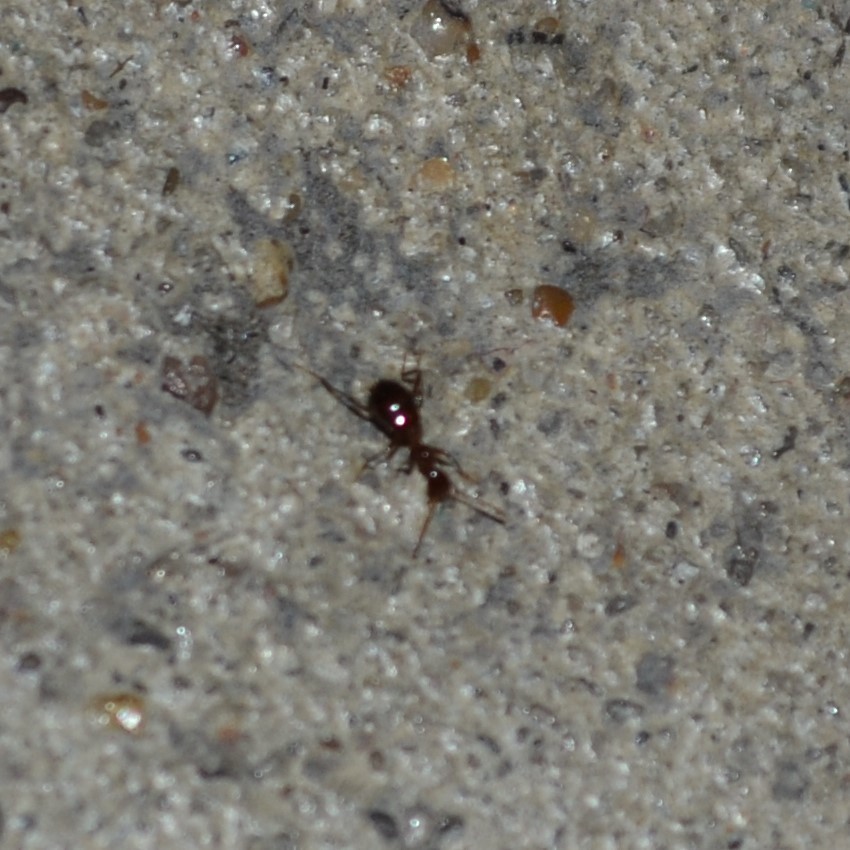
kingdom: Animalia
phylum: Arthropoda
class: Insecta
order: Coleoptera
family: Anthicidae
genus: Acanthinus
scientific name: Acanthinus
